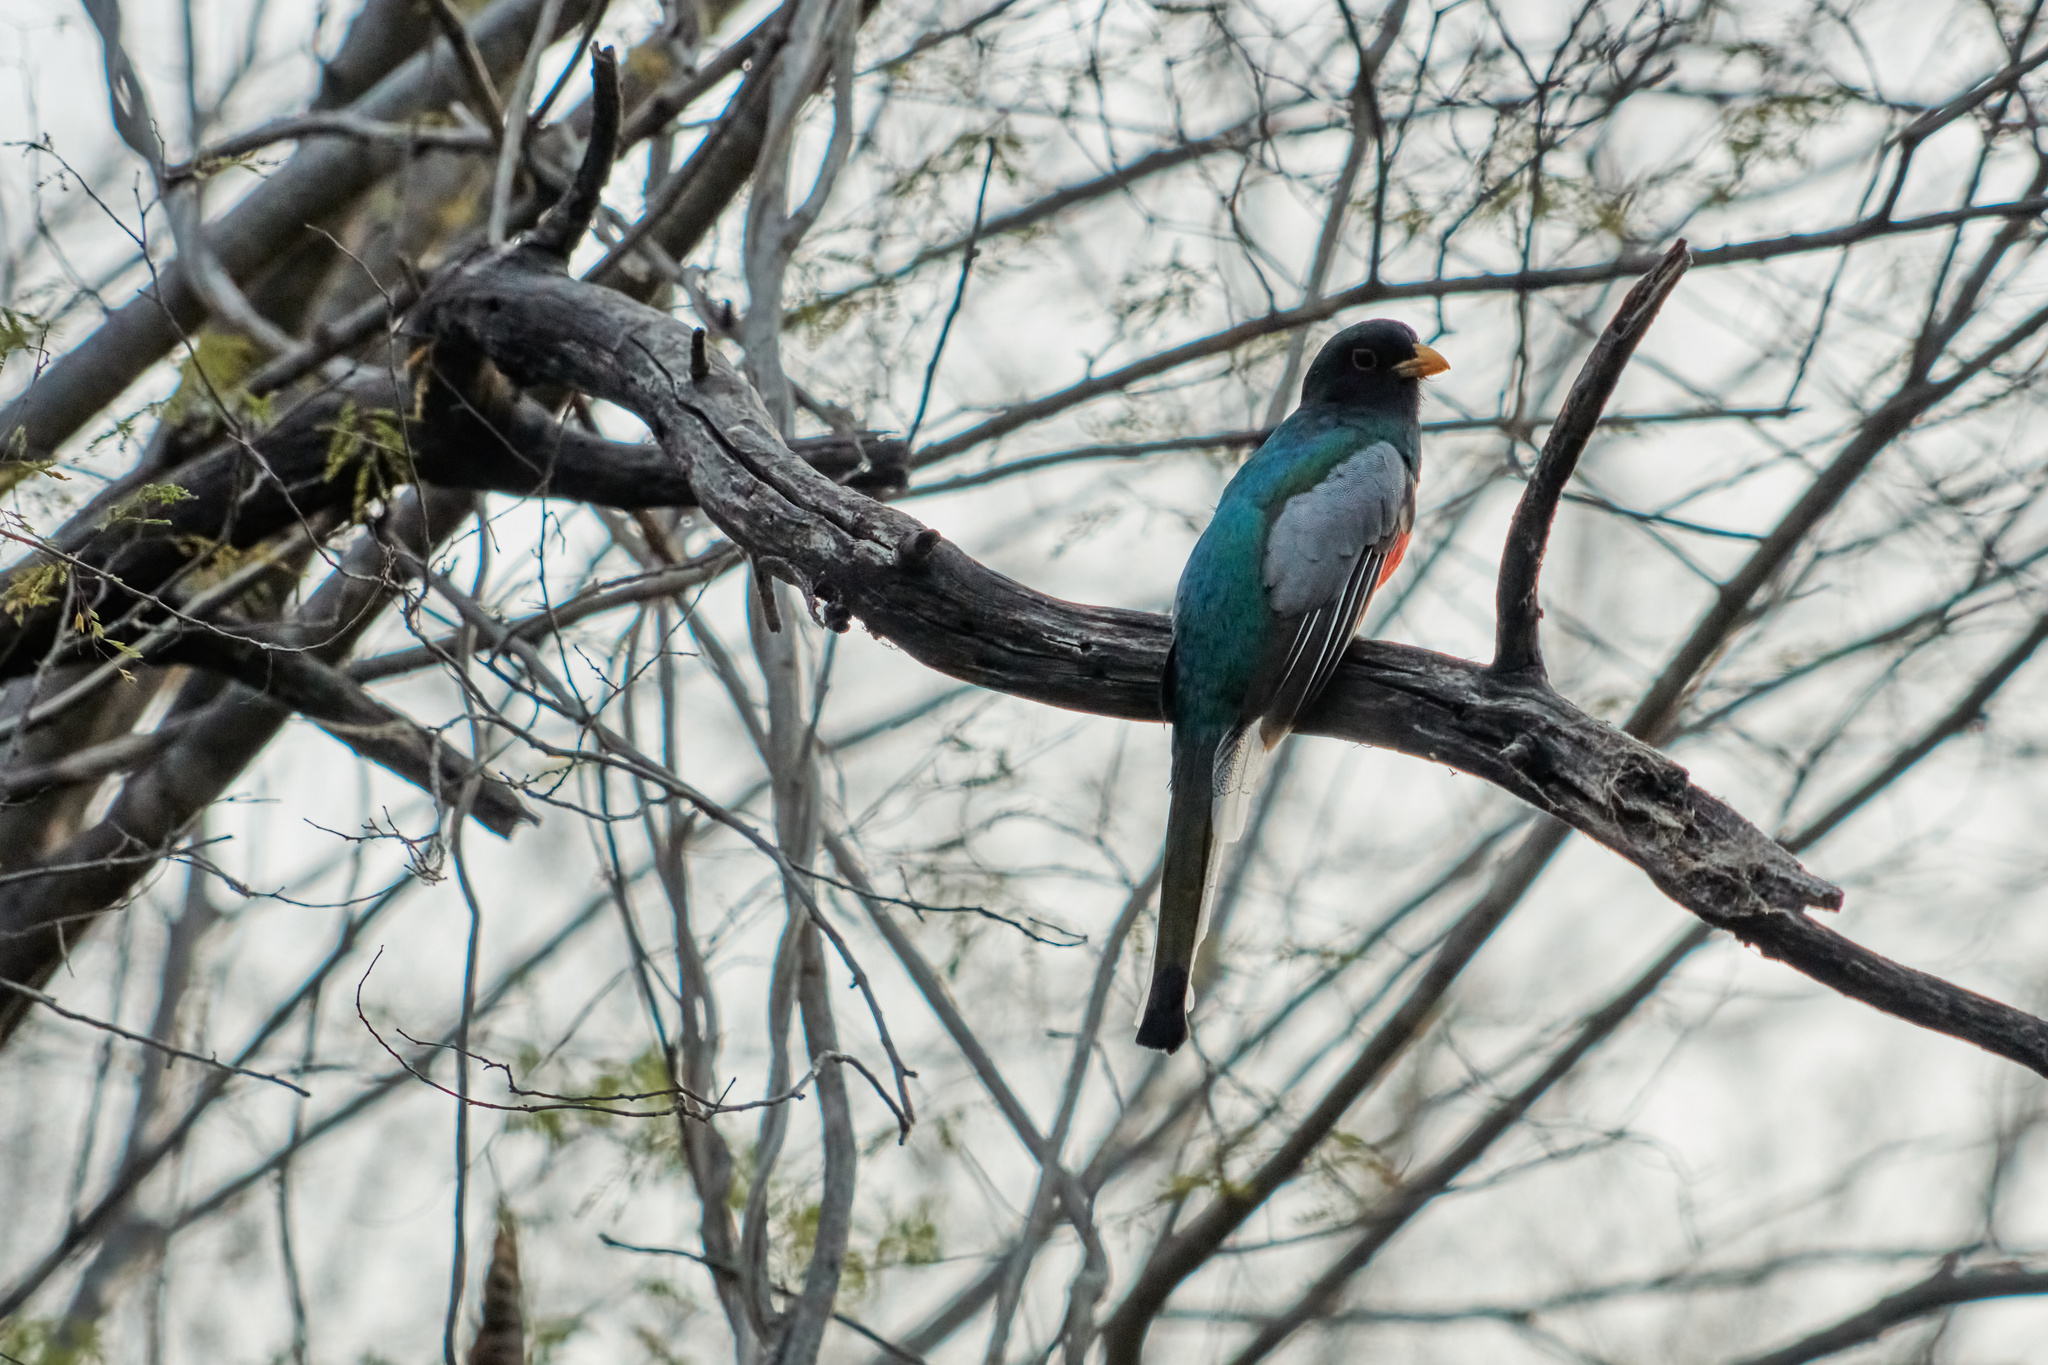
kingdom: Animalia
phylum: Chordata
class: Aves
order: Trogoniformes
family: Trogonidae
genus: Trogon
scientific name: Trogon elegans
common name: Elegant trogon
